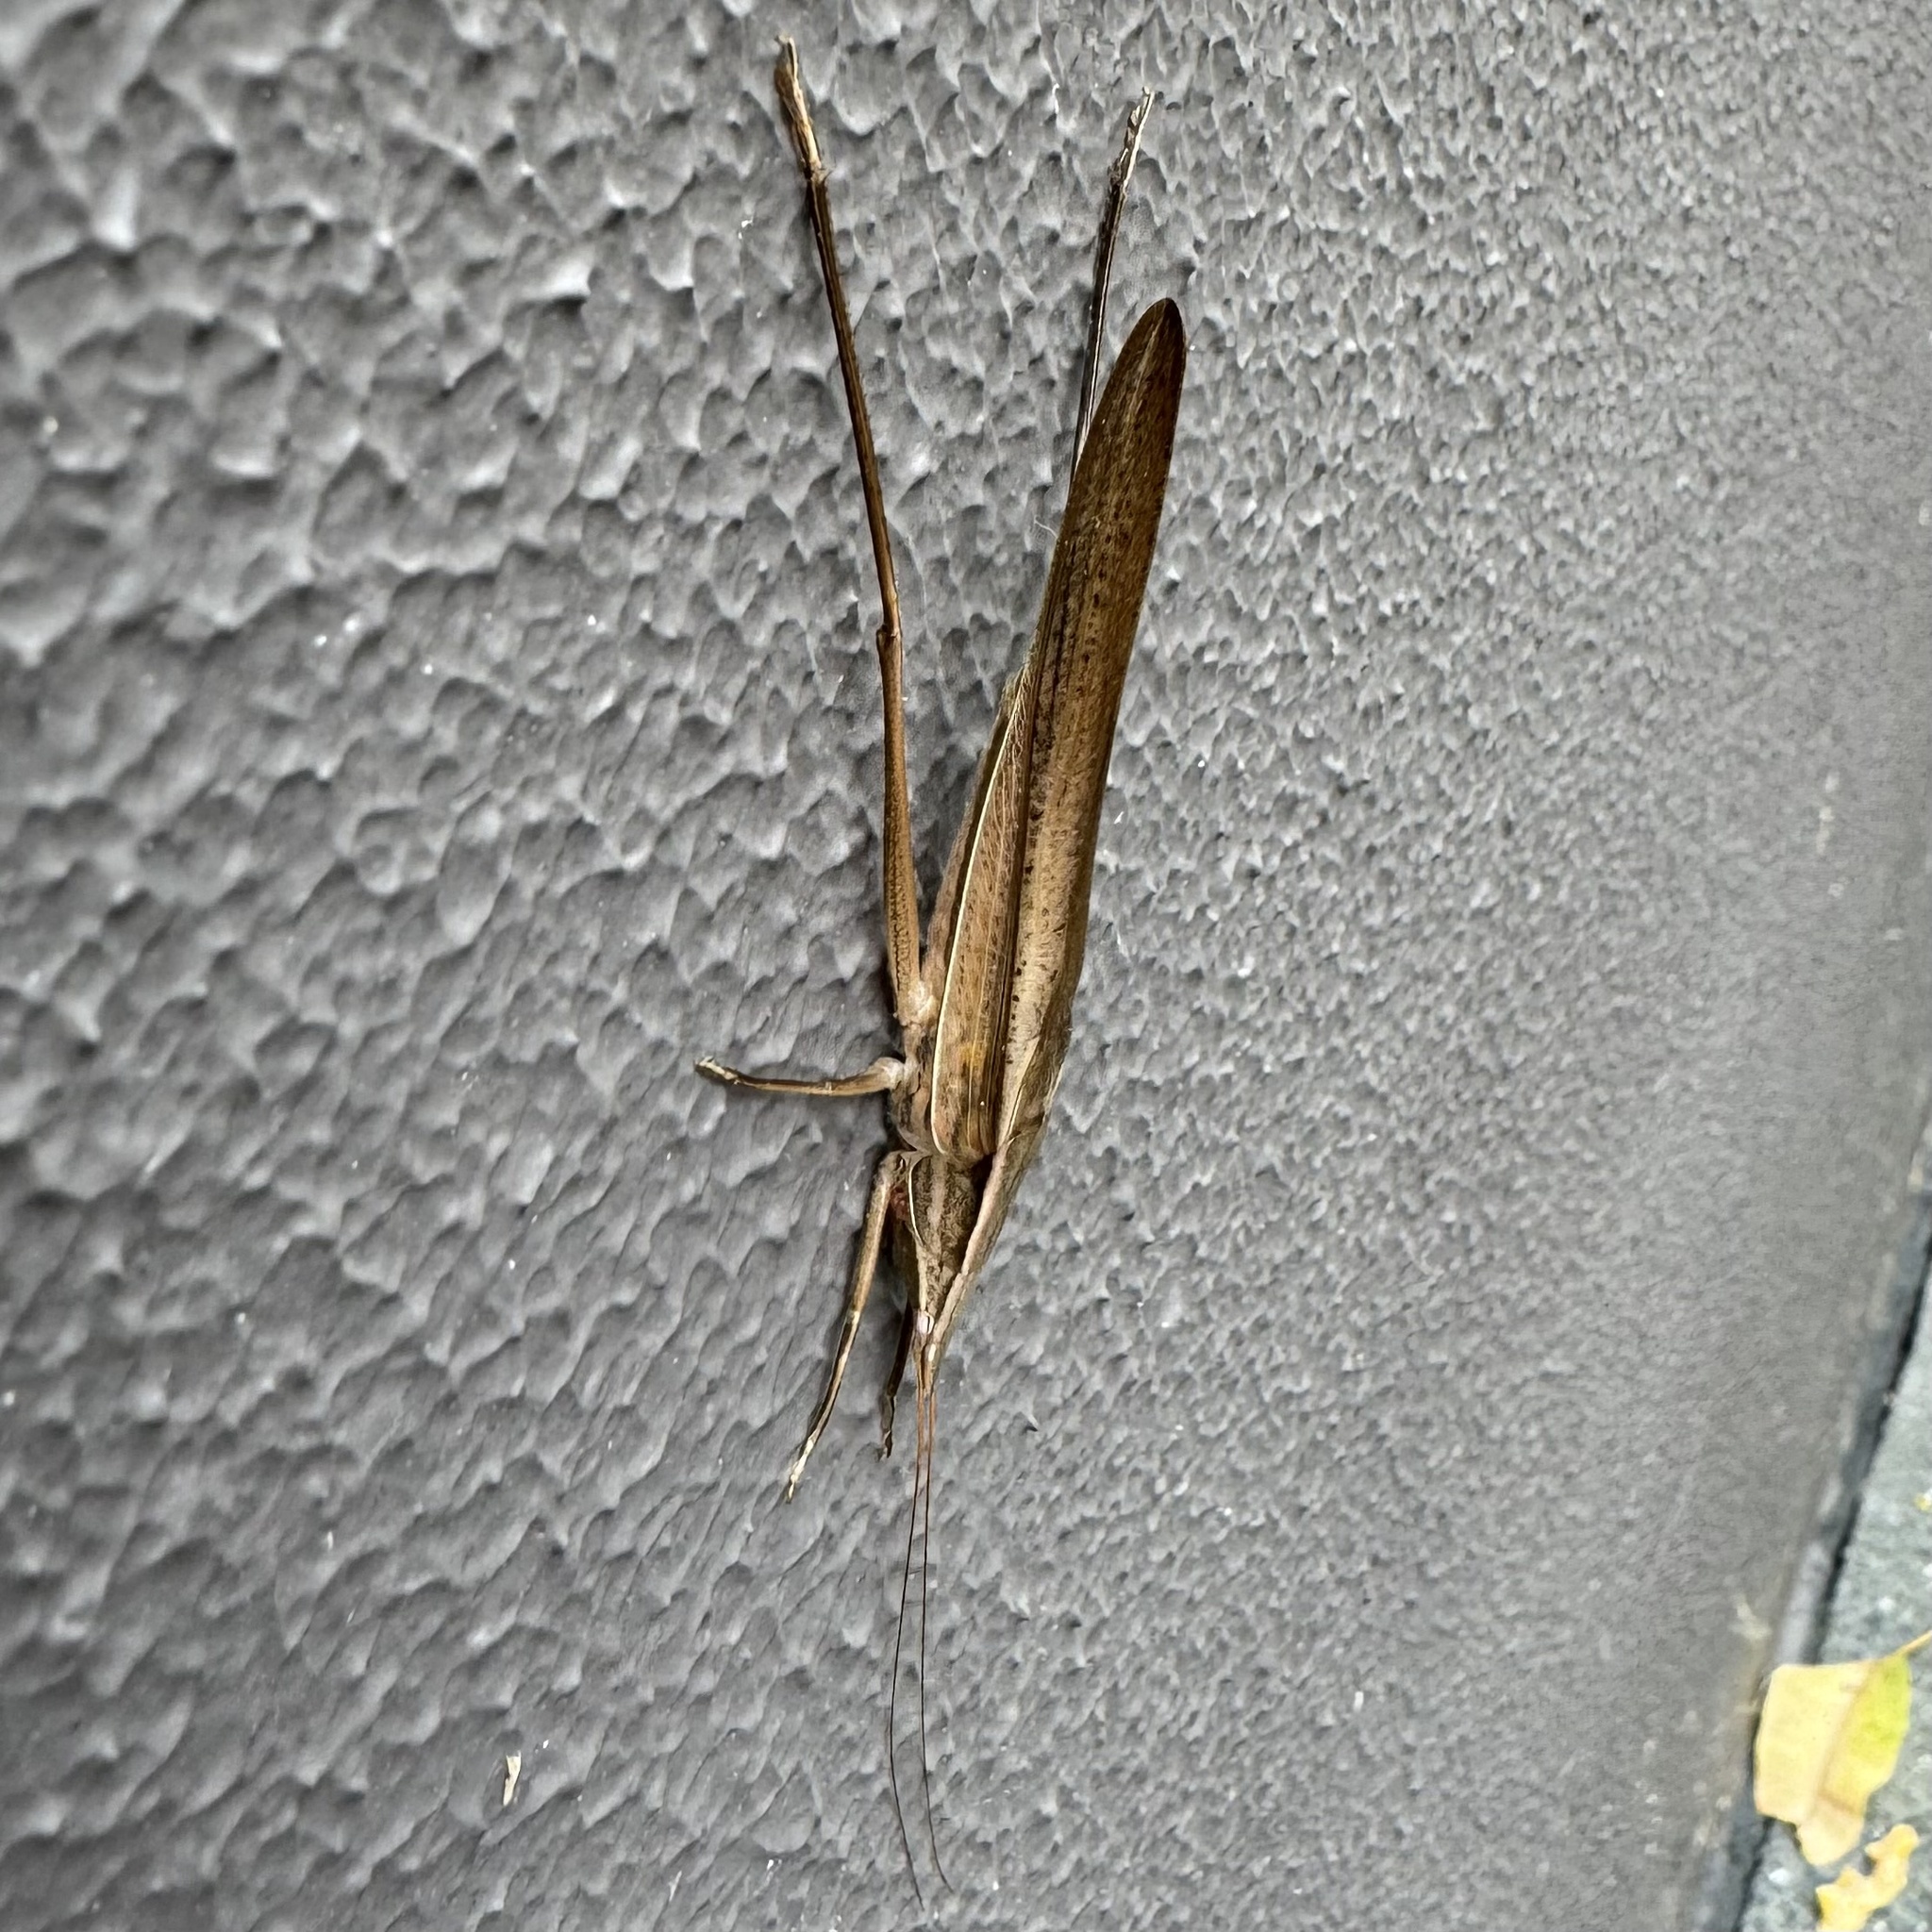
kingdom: Animalia
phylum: Arthropoda
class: Insecta
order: Orthoptera
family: Tettigoniidae
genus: Pseudorhynchus
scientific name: Pseudorhynchus lessonii
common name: Lesson's mimicking snout nose
